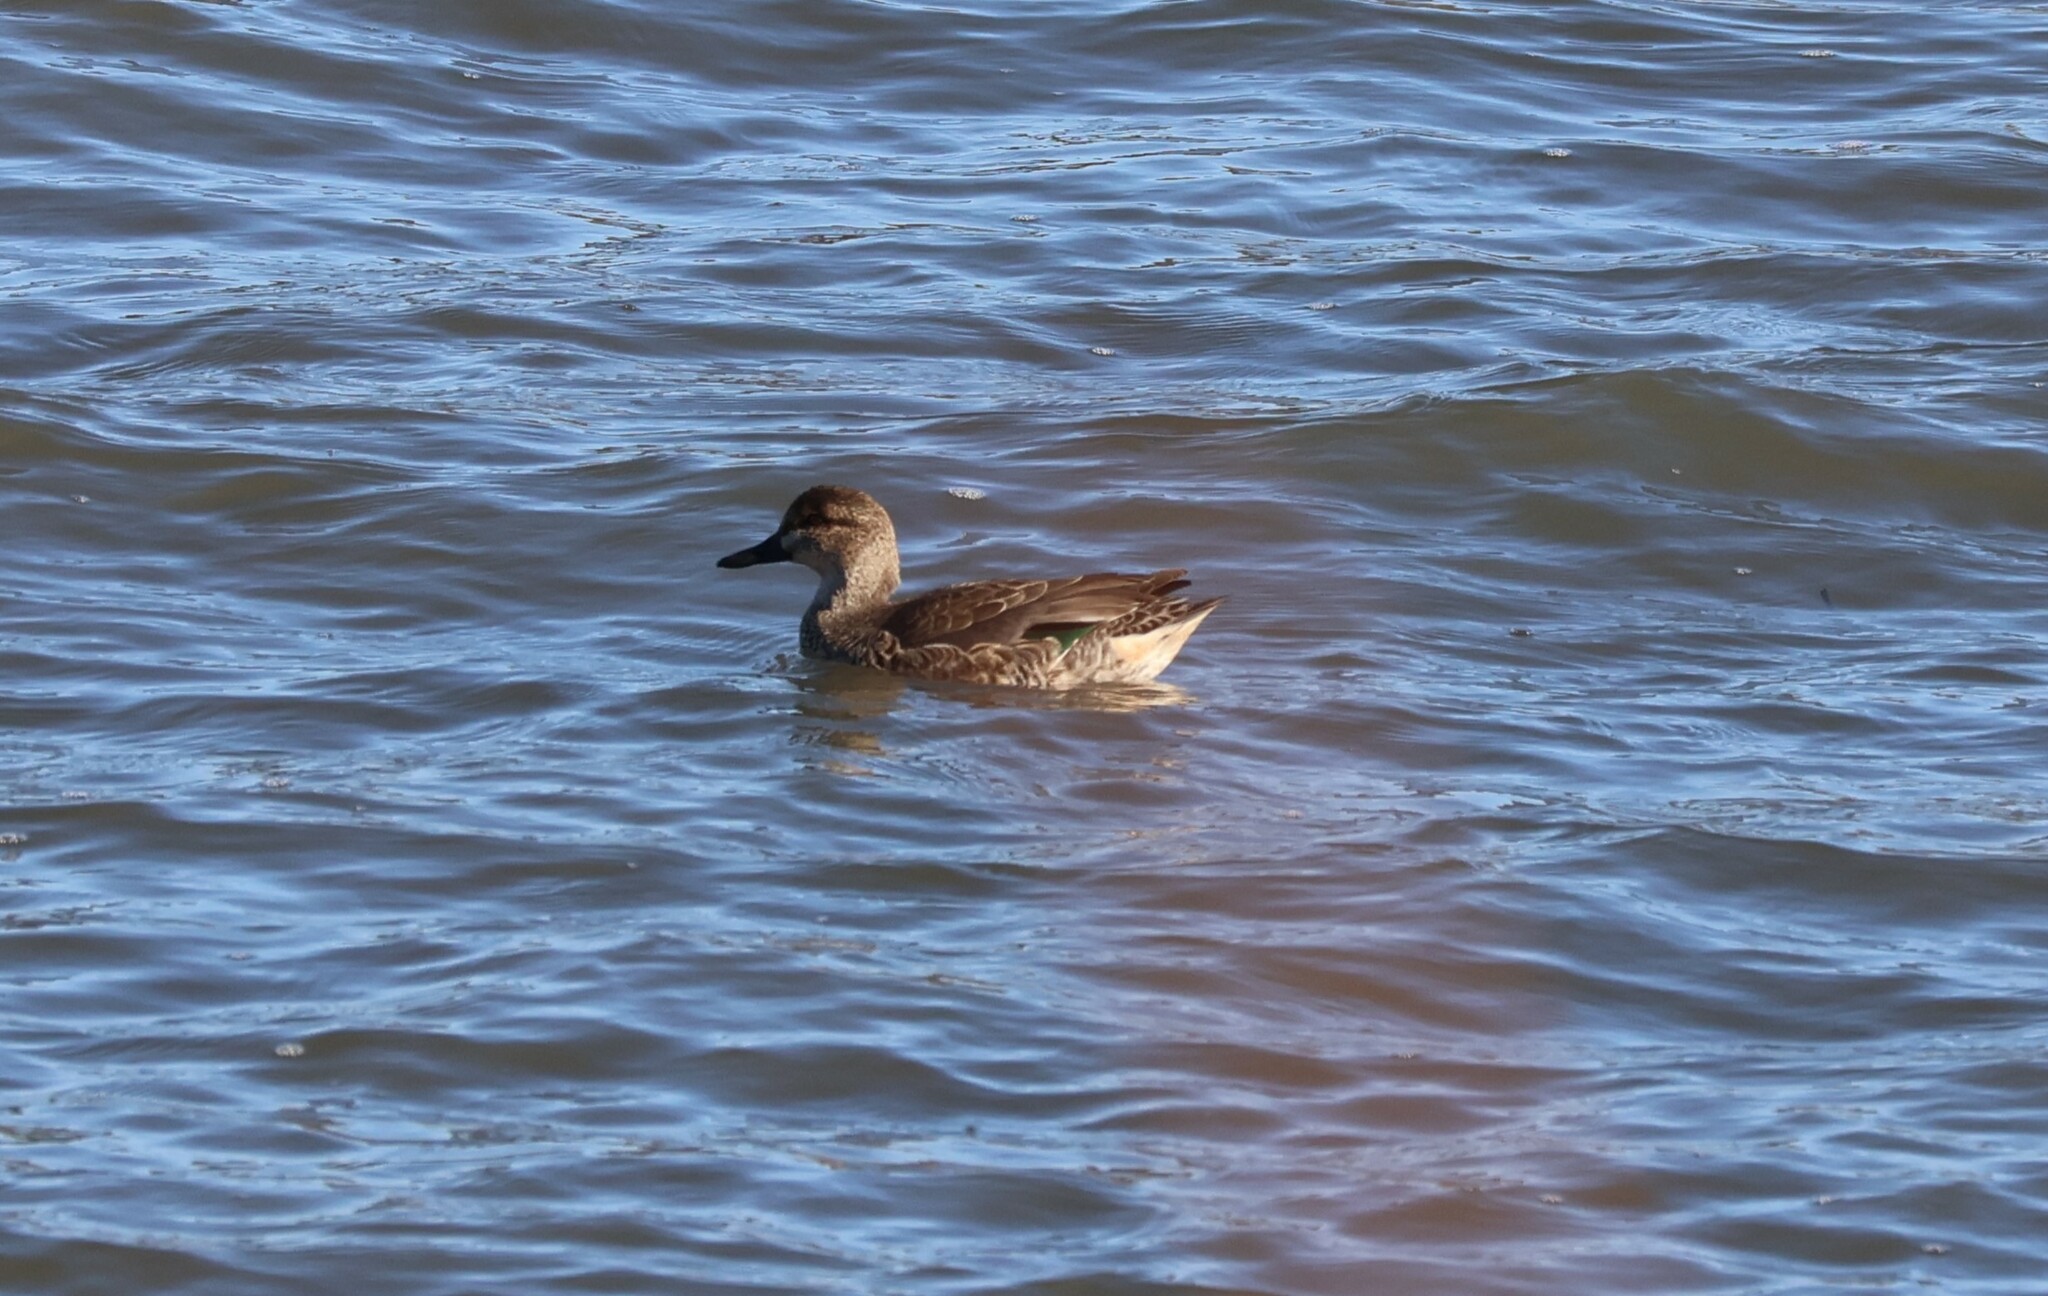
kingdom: Animalia
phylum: Chordata
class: Aves
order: Anseriformes
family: Anatidae
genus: Anas
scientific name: Anas crecca
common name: Eurasian teal
